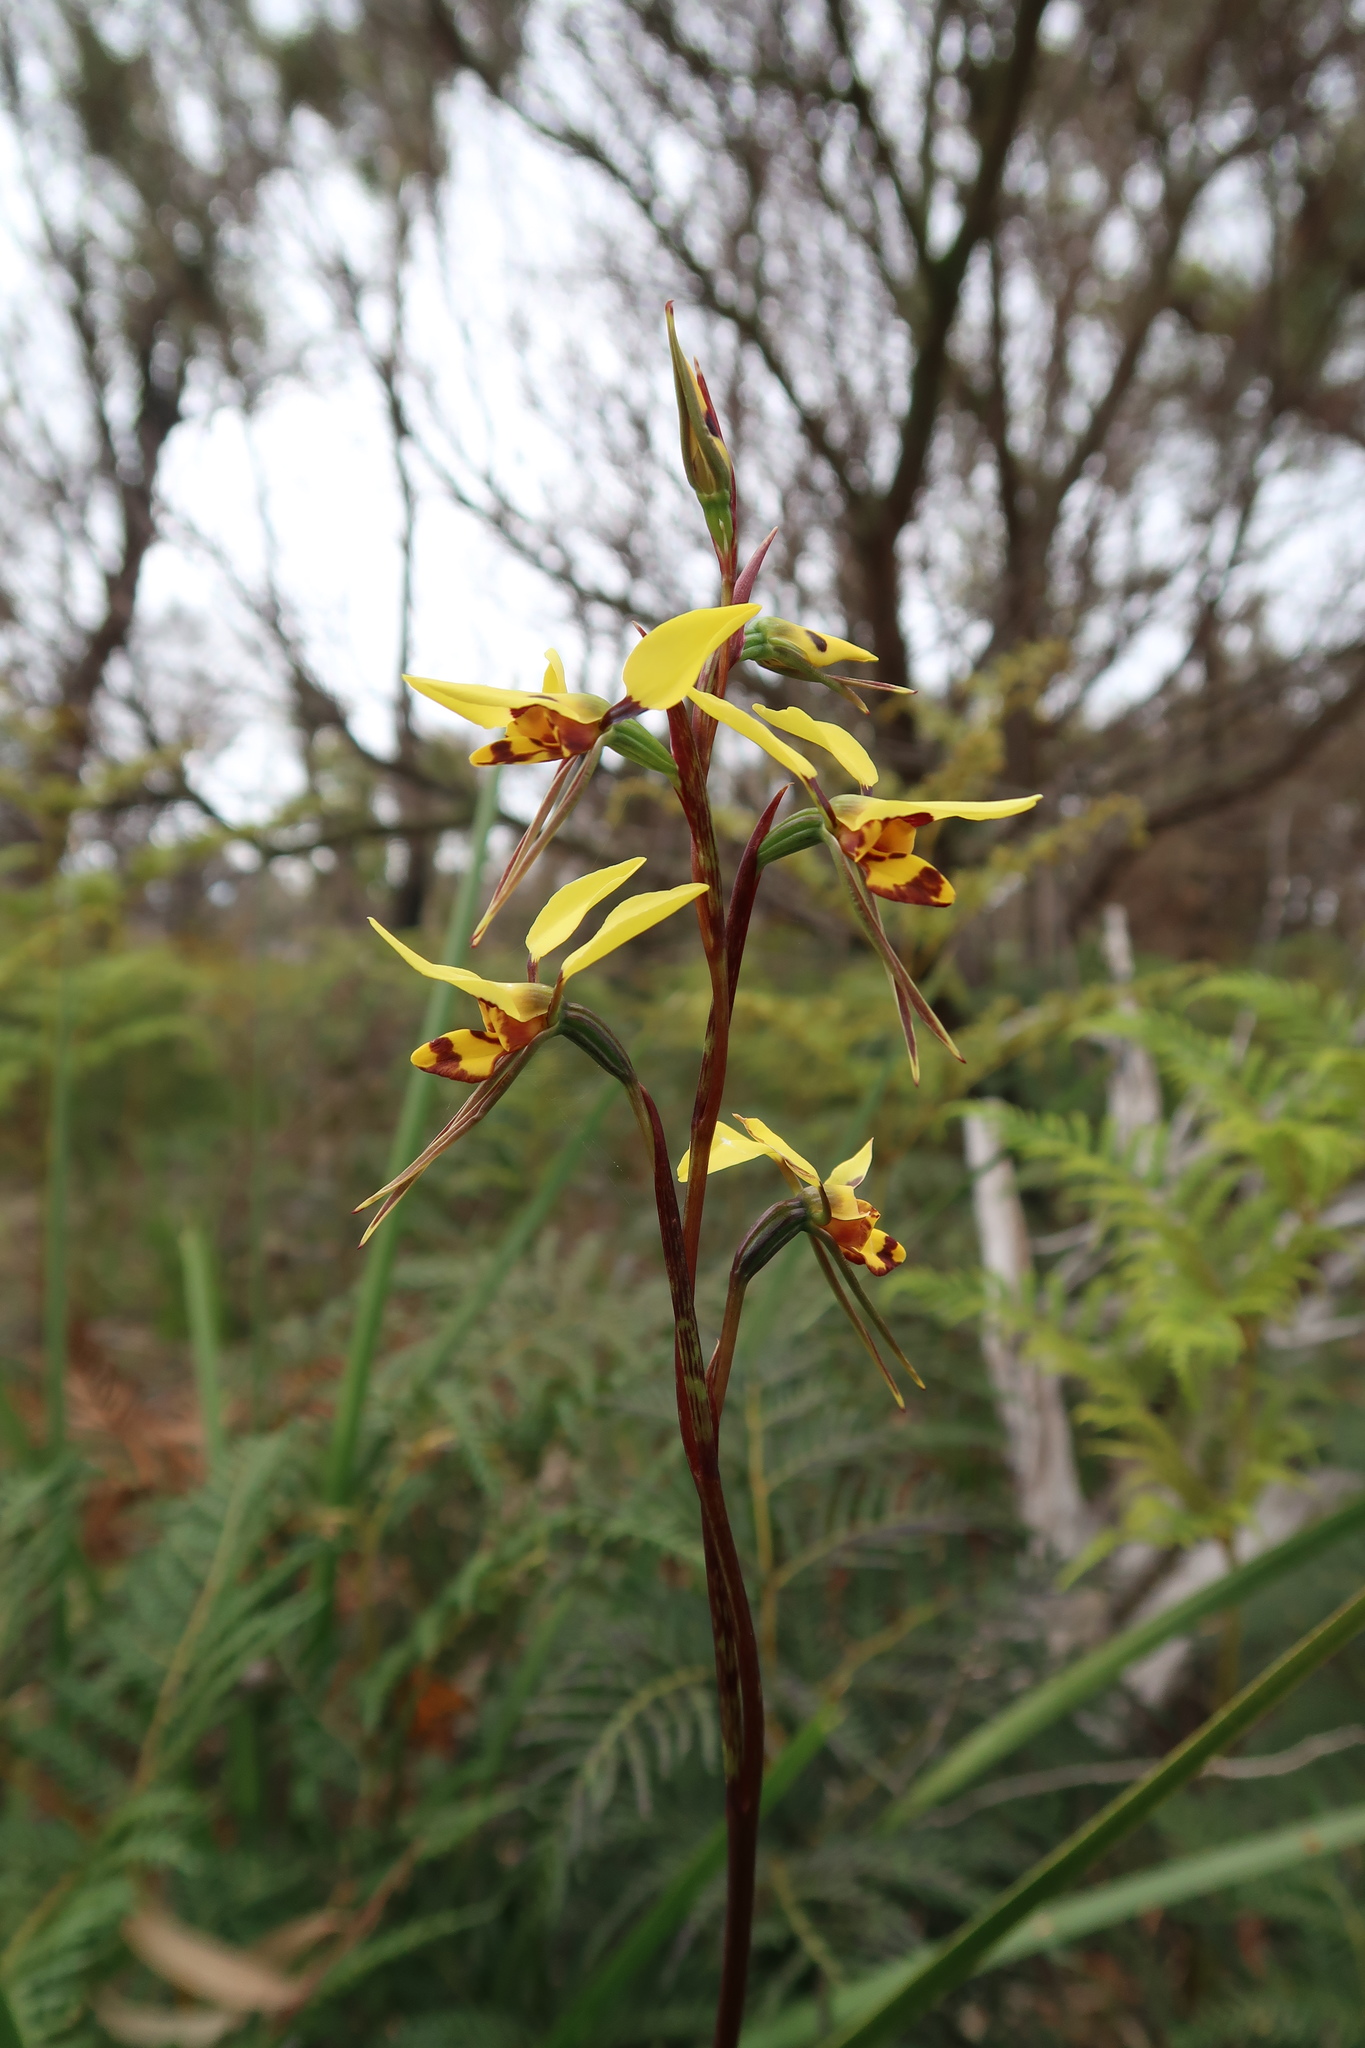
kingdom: Plantae
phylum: Tracheophyta
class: Liliopsida
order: Asparagales
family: Orchidaceae
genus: Diuris
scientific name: Diuris sulphurea
